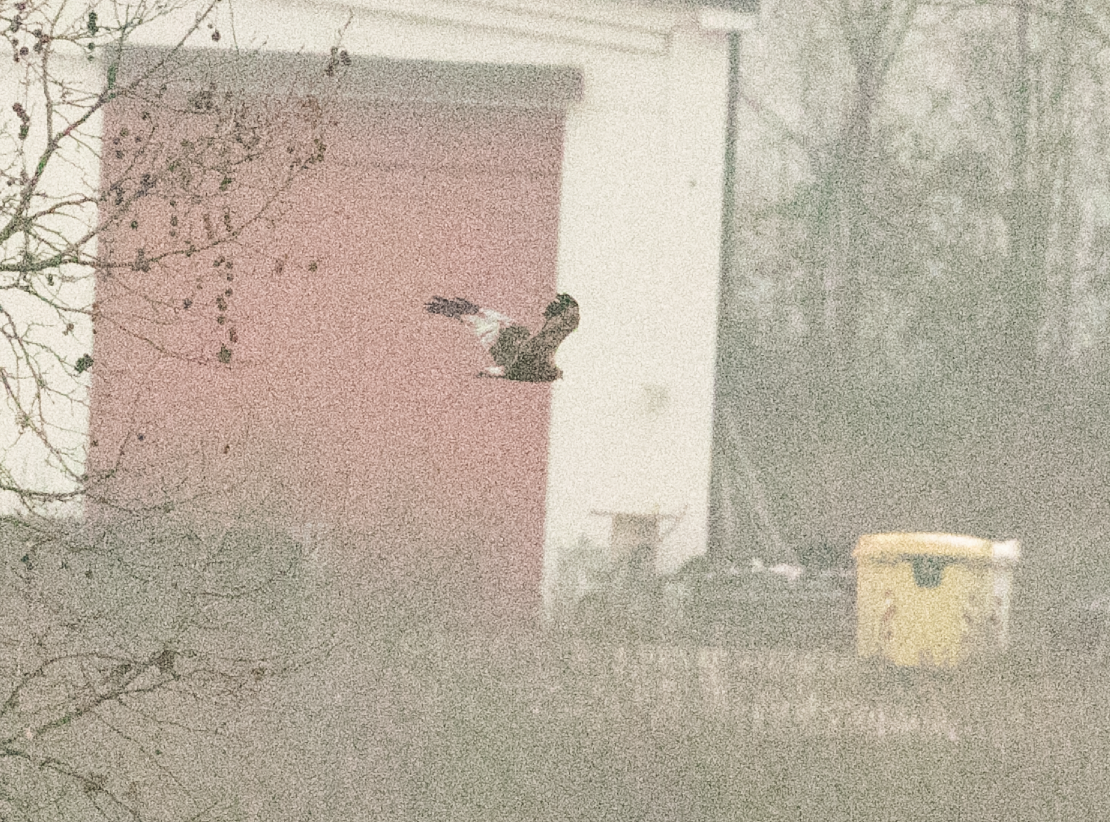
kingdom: Animalia
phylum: Chordata
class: Aves
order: Accipitriformes
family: Accipitridae
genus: Circus
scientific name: Circus aeruginosus
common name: Western marsh harrier
